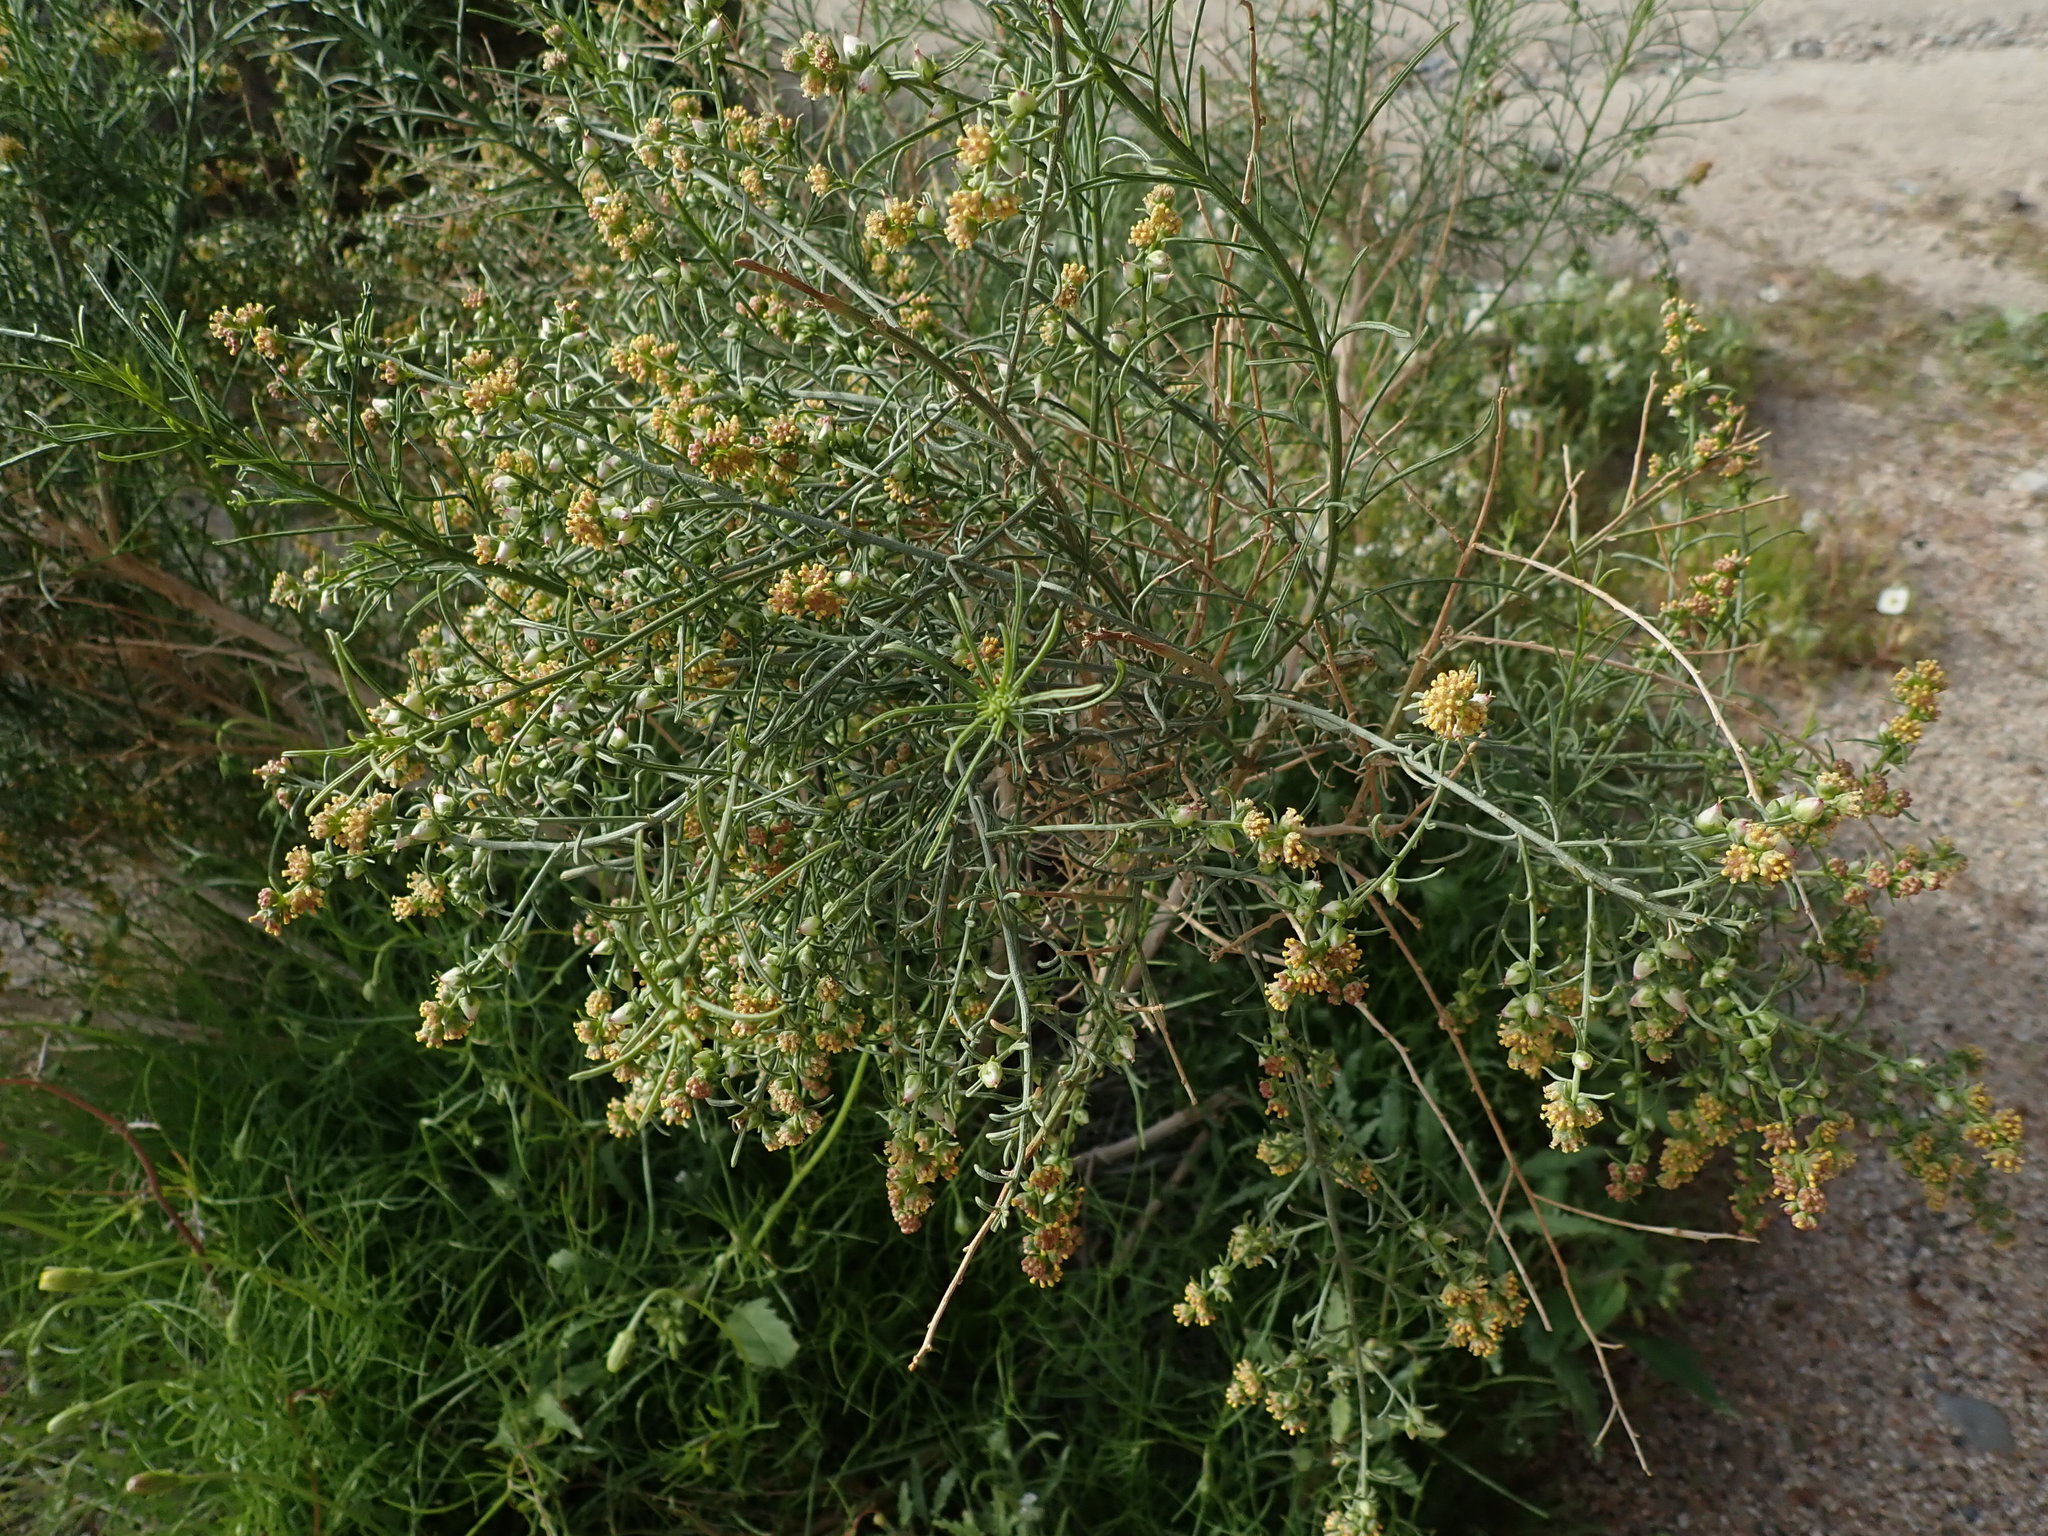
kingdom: Plantae
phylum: Tracheophyta
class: Magnoliopsida
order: Asterales
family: Asteraceae
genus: Ambrosia
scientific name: Ambrosia salsola
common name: Burrobrush
